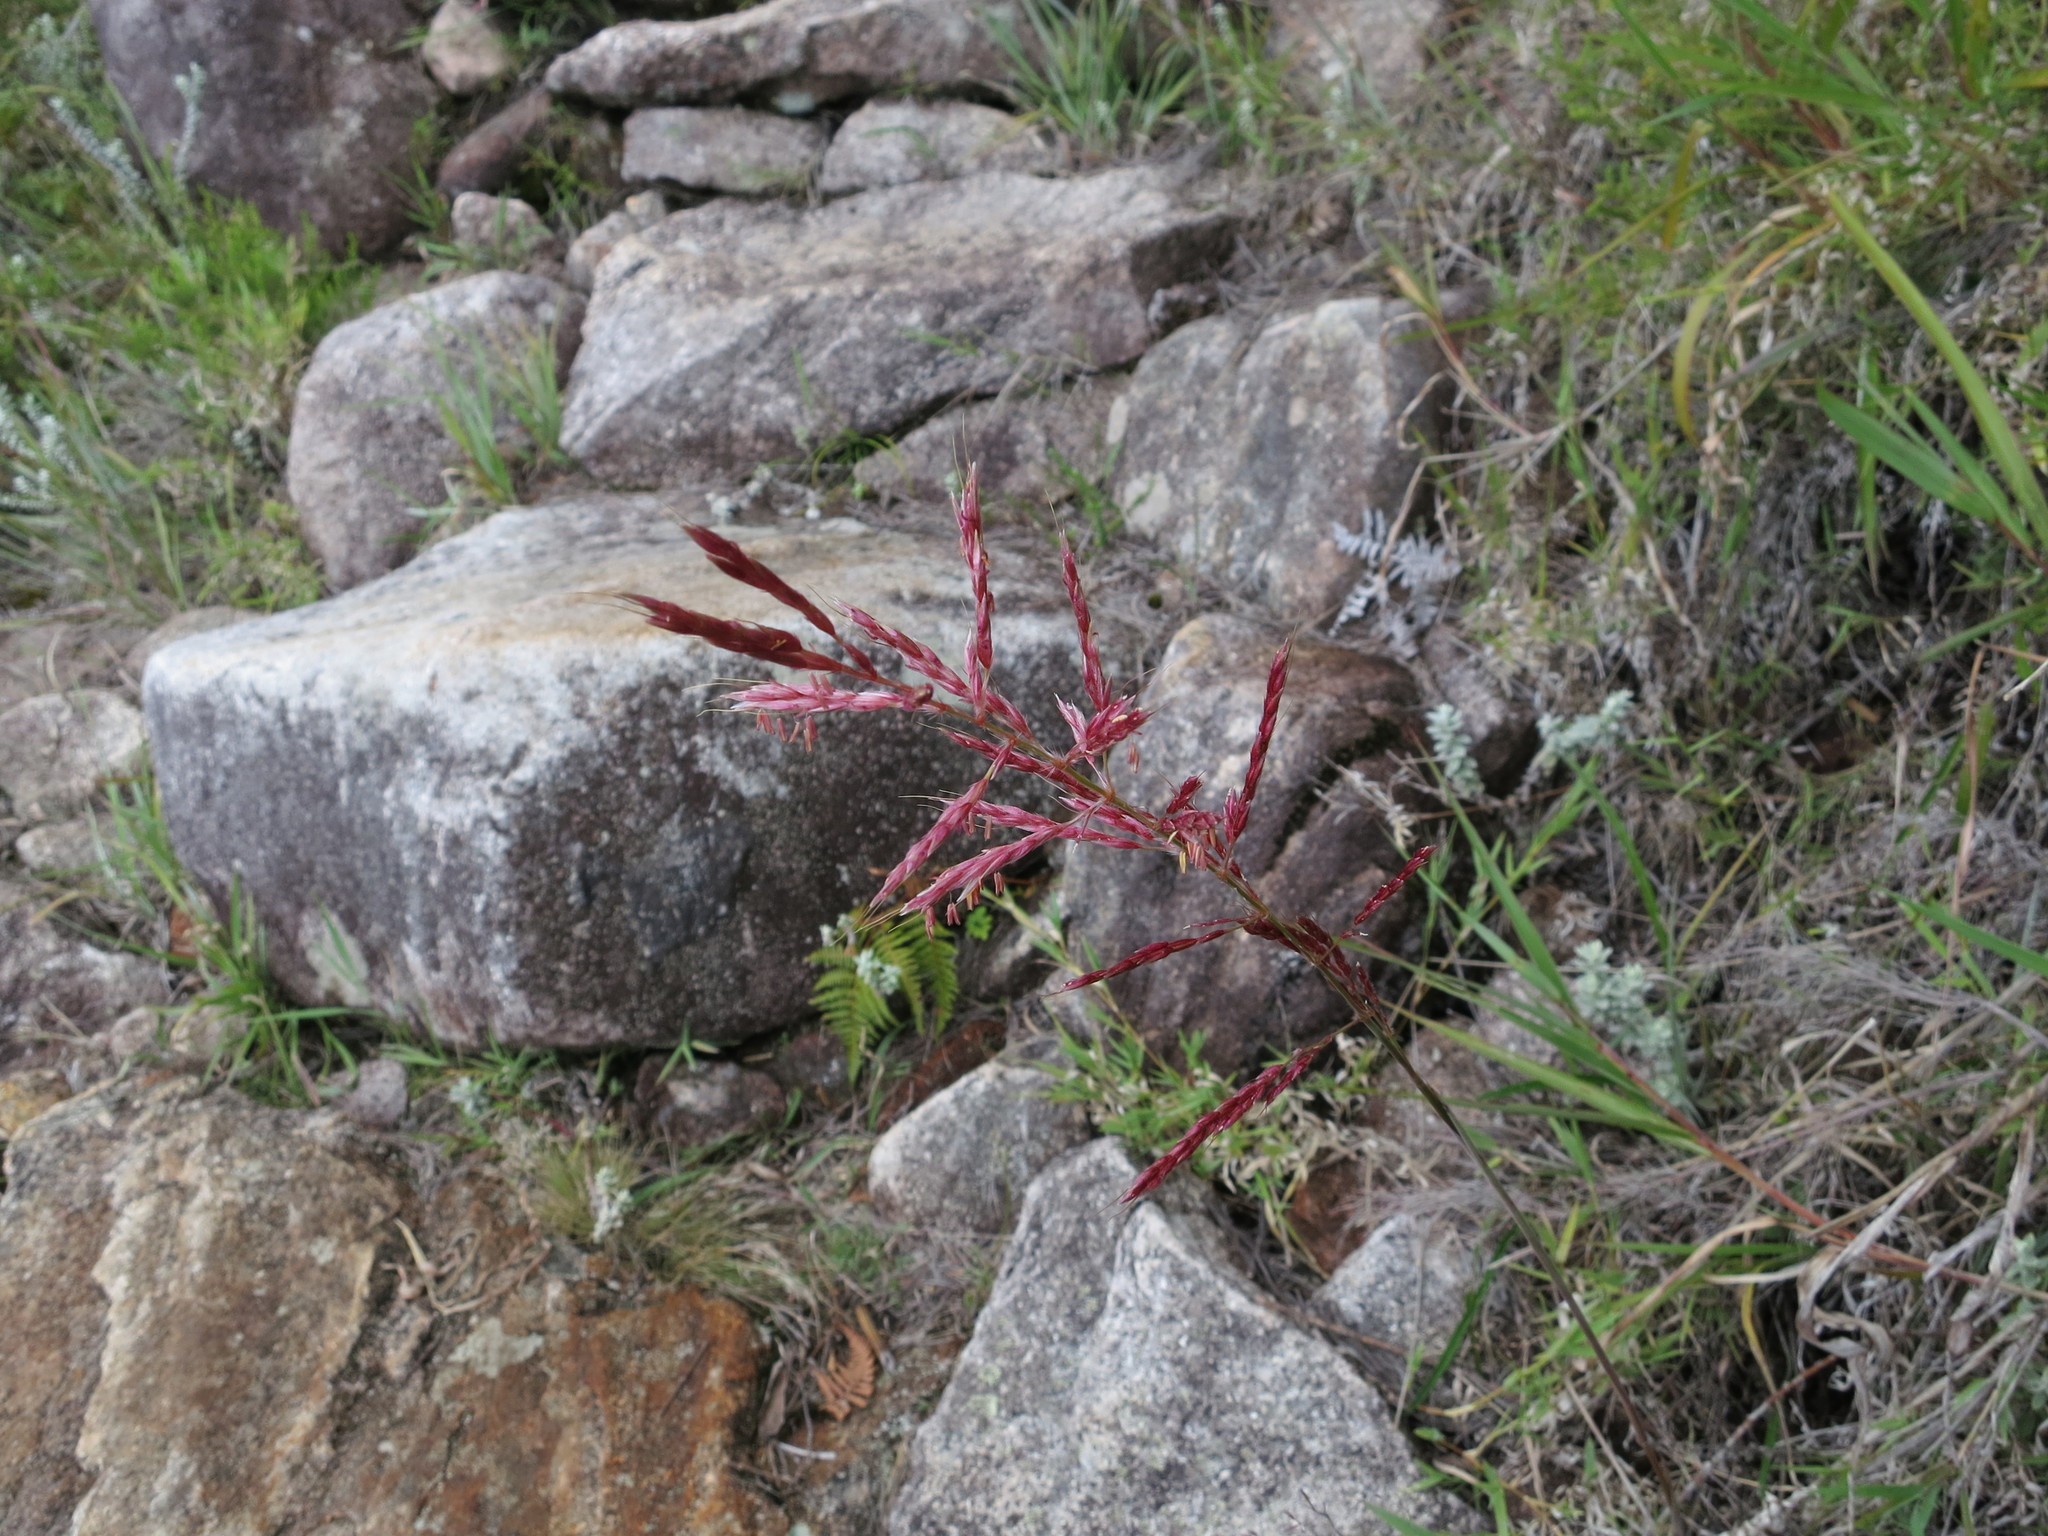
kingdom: Plantae
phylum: Tracheophyta
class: Liliopsida
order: Poales
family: Poaceae
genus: Lasiorhachis
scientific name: Lasiorhachis viguieri
